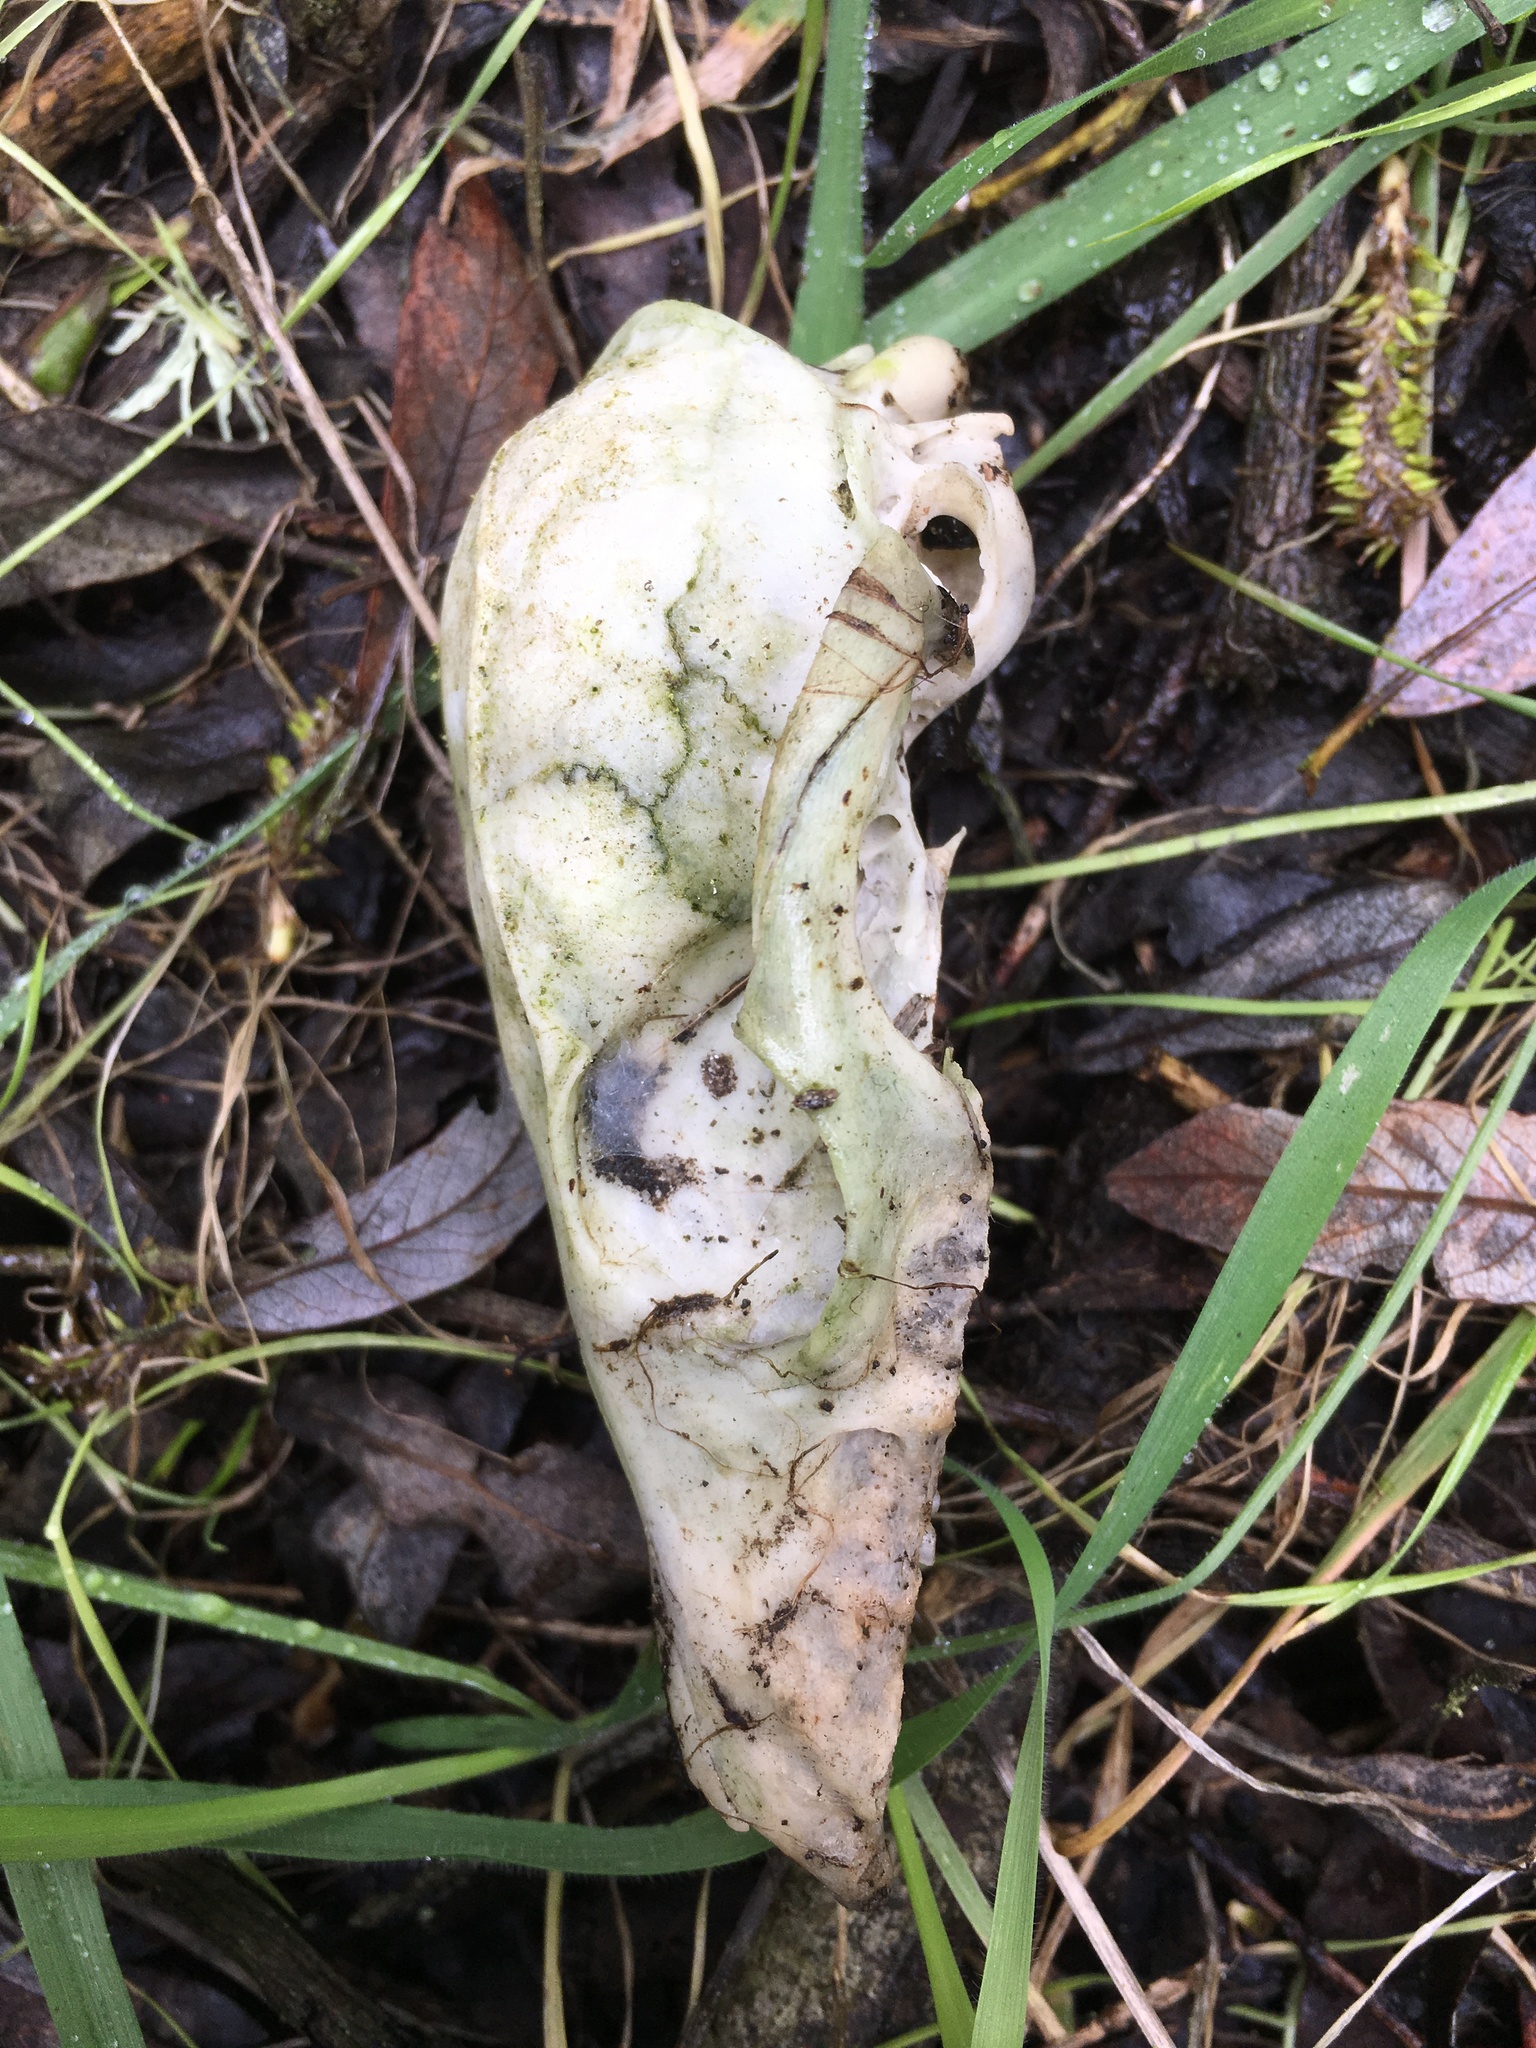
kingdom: Animalia
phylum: Chordata
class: Mammalia
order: Carnivora
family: Canidae
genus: Urocyon
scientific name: Urocyon littoralis
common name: Island gray fox
